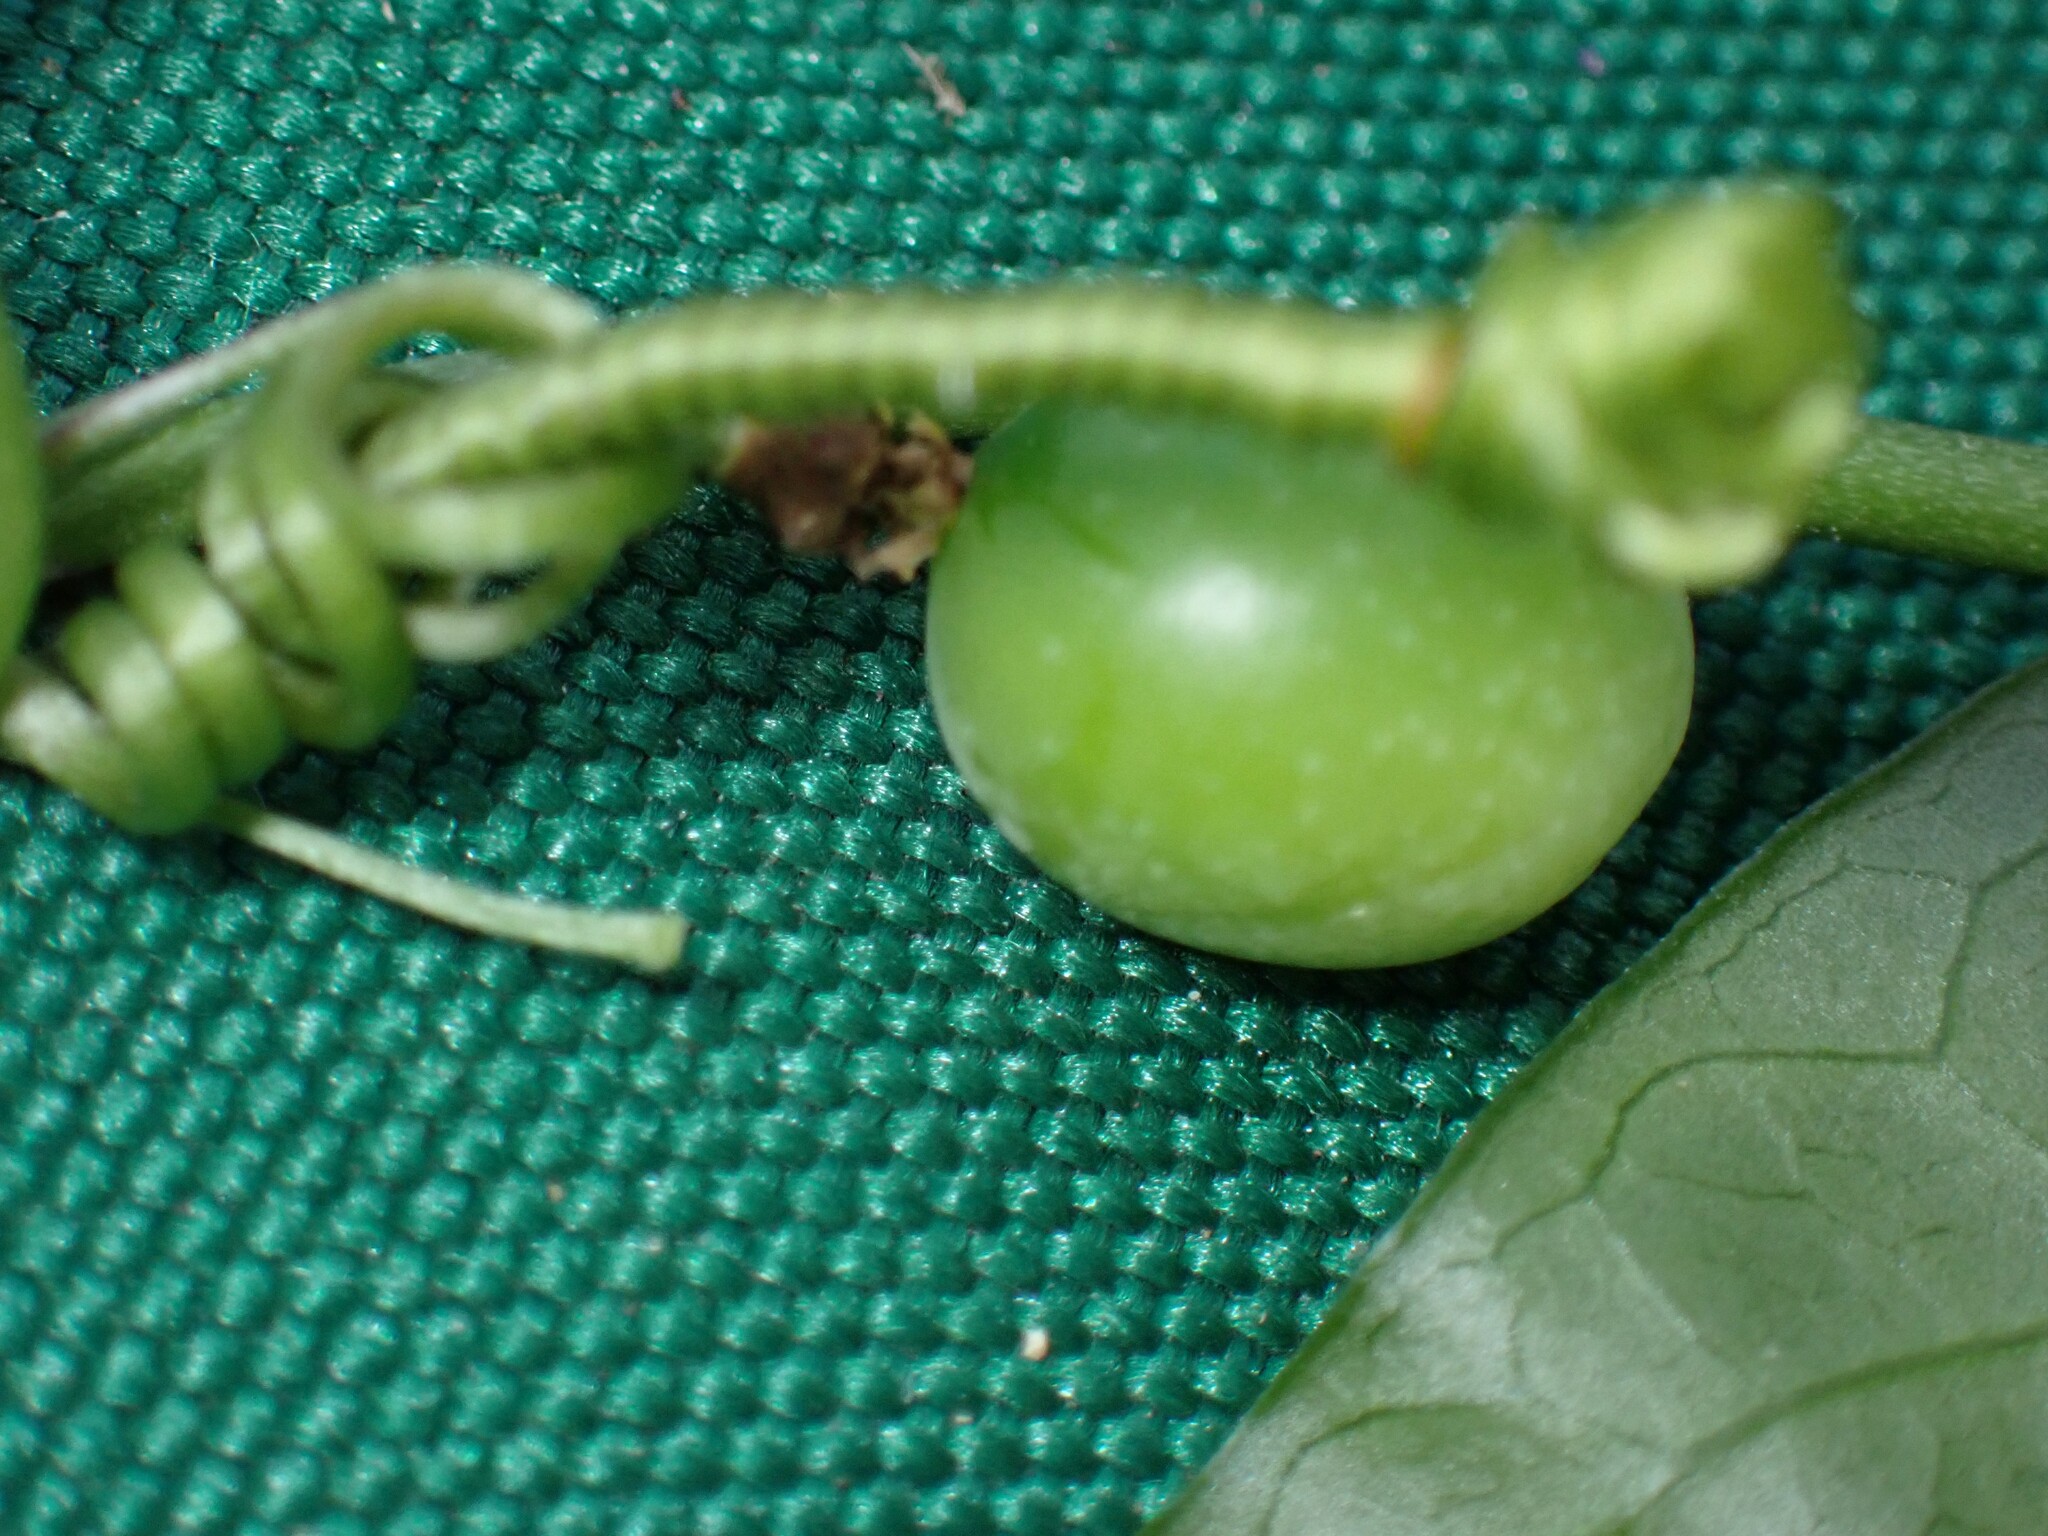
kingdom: Plantae
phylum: Tracheophyta
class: Magnoliopsida
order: Malpighiales
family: Passifloraceae
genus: Passiflora
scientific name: Passiflora pallida
